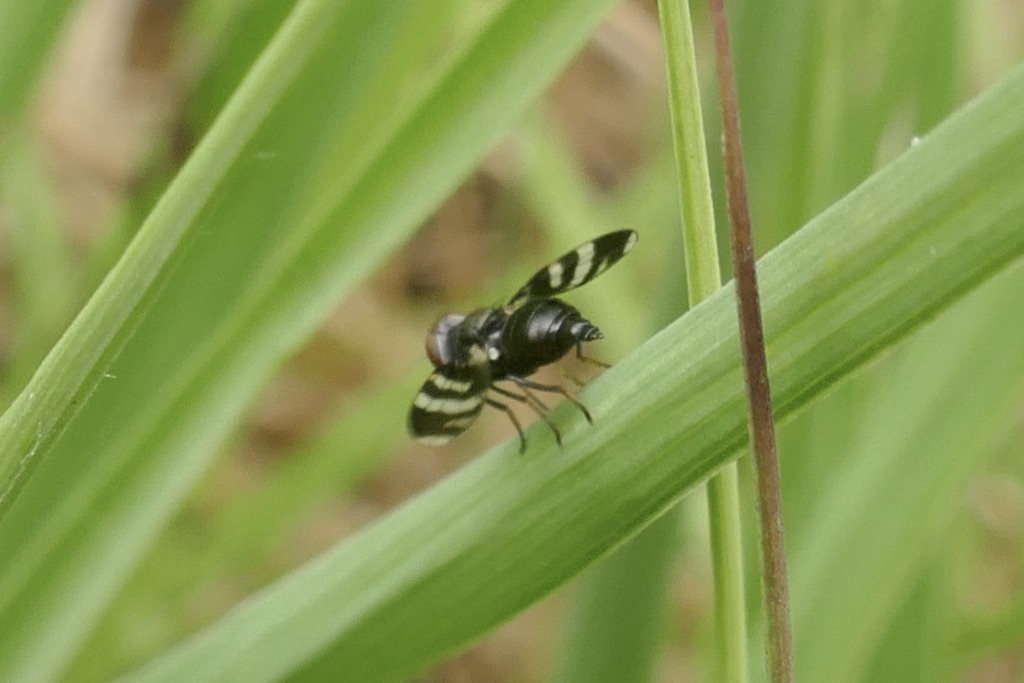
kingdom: Animalia
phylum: Arthropoda
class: Insecta
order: Diptera
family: Ulidiidae
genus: Herina
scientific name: Herina frondescentiae
